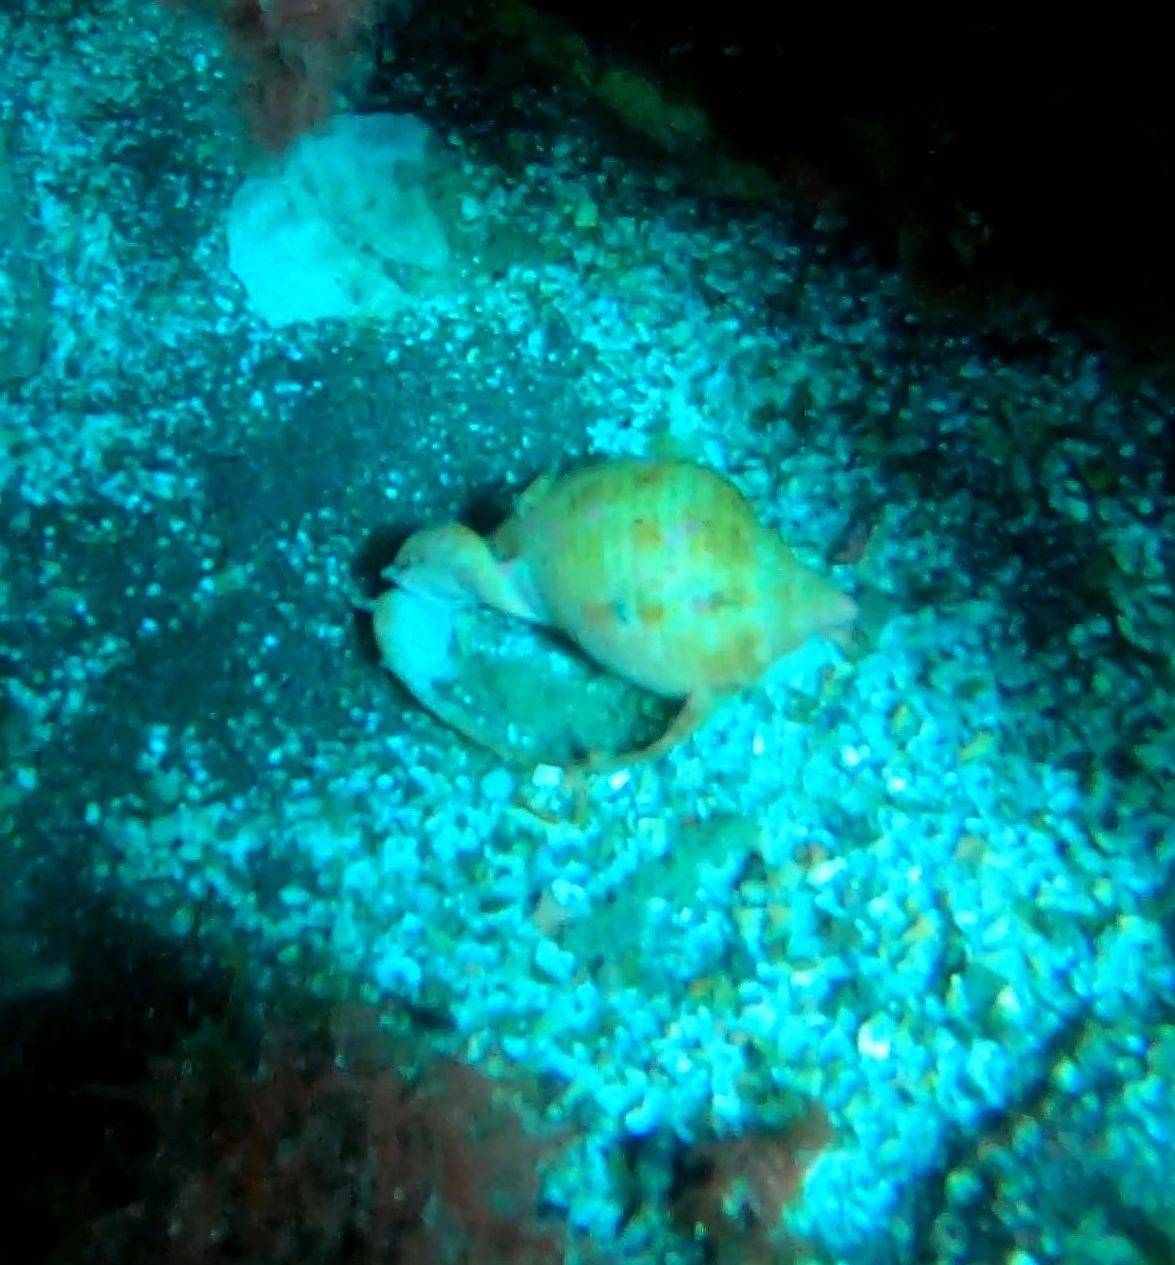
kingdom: Animalia
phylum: Mollusca
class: Gastropoda
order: Littorinimorpha
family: Cassidae
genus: Semicassis
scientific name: Semicassis undulata
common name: Mediterranean bonnet
